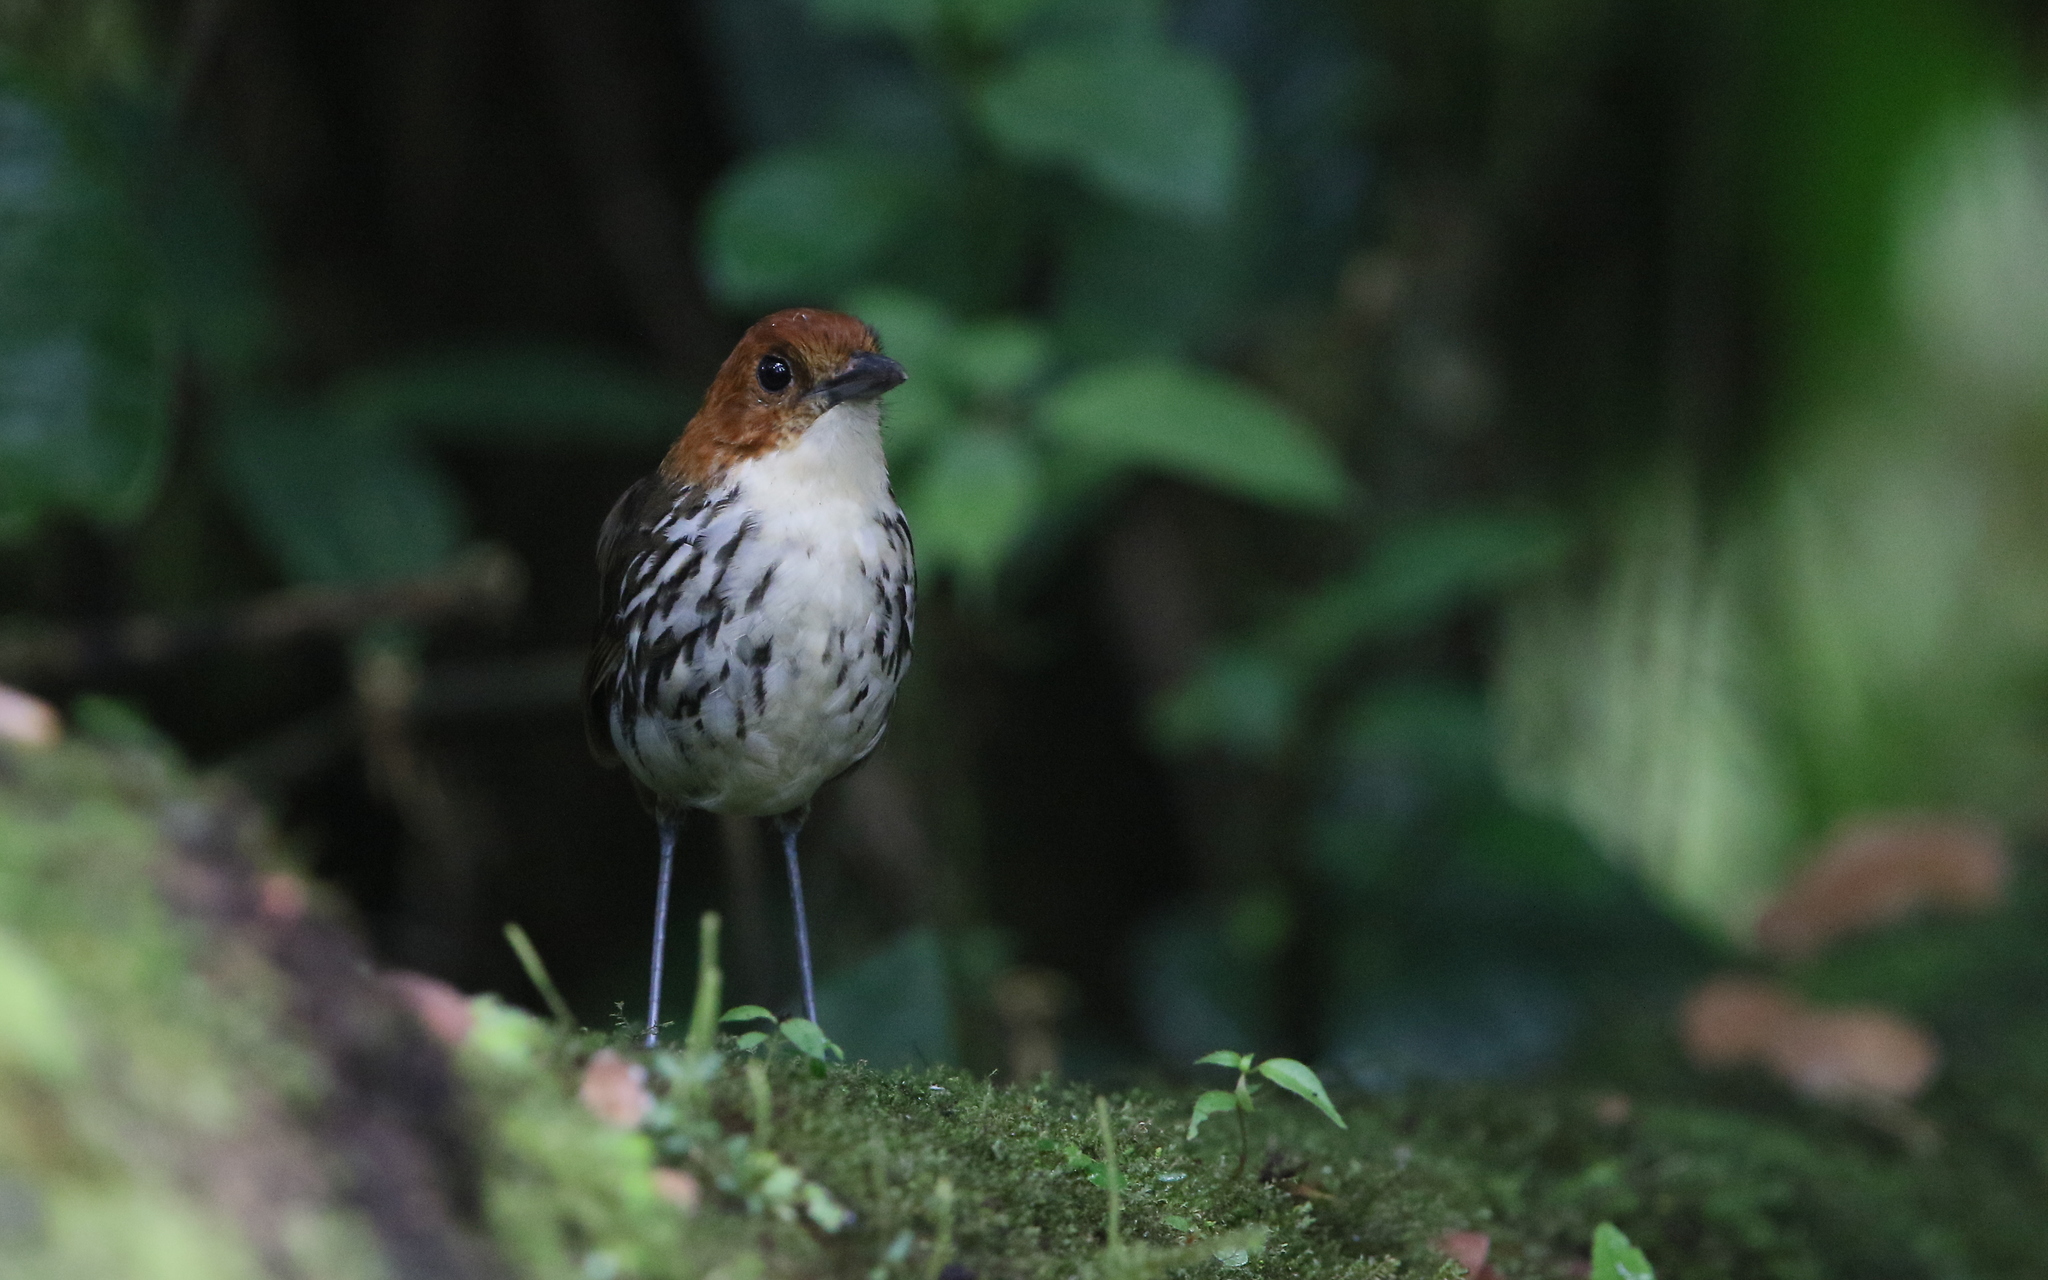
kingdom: Animalia
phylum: Chordata
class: Aves
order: Passeriformes
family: Grallariidae
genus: Grallaria
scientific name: Grallaria ruficapilla
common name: Chestnut-crowned antpitta
